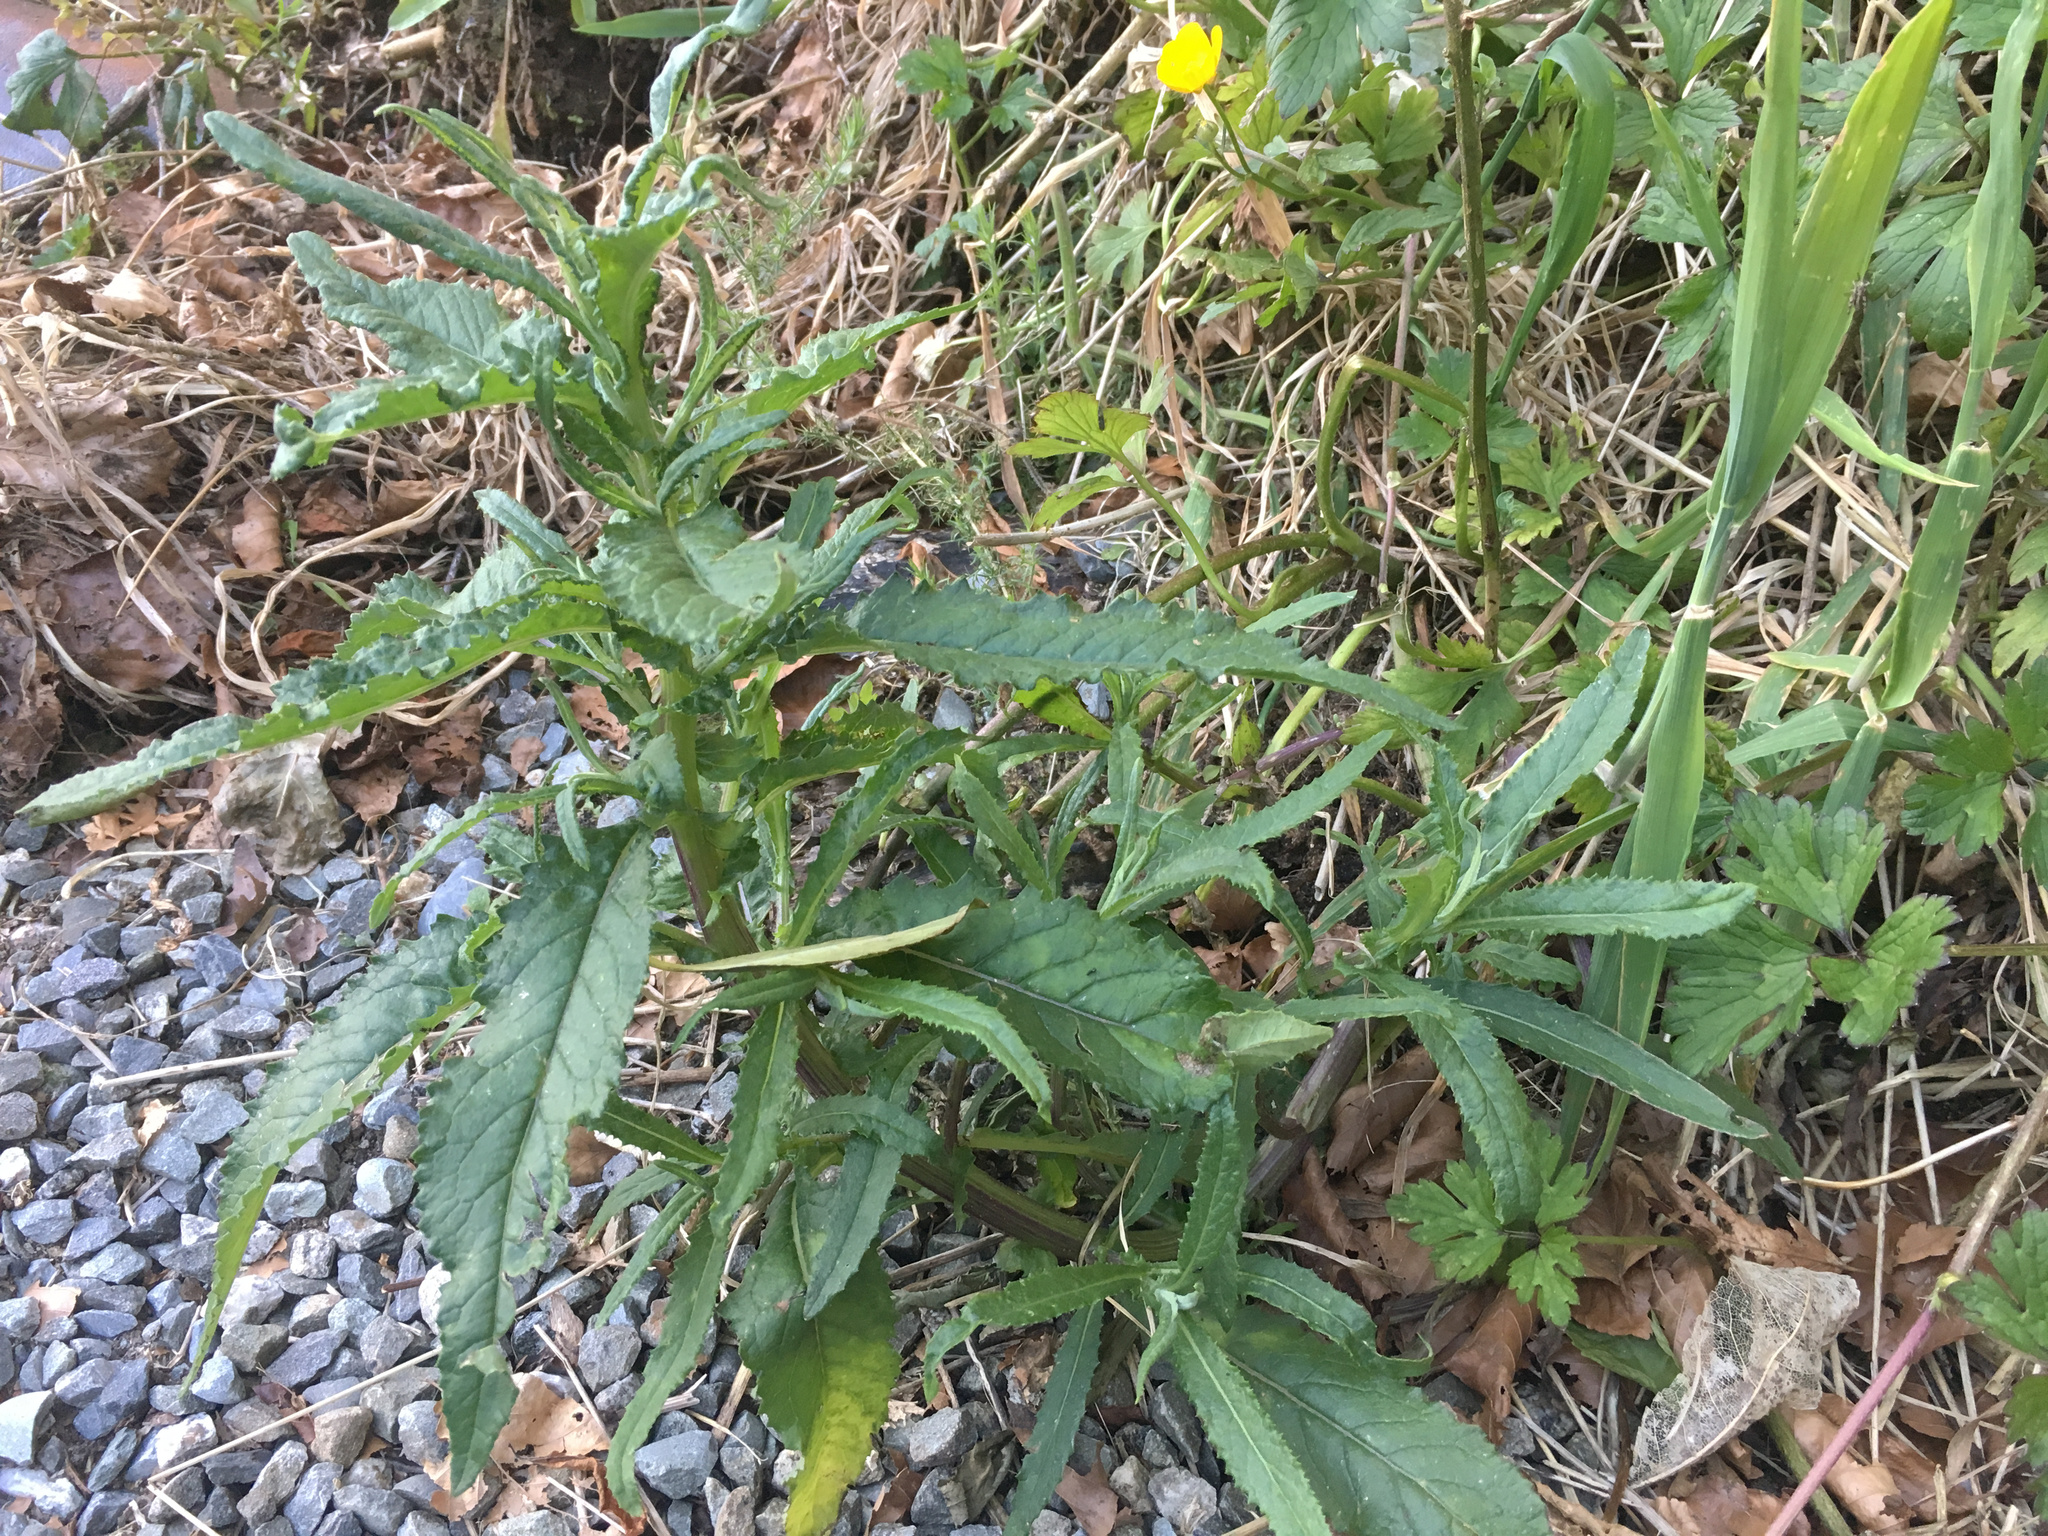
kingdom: Plantae
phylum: Tracheophyta
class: Magnoliopsida
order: Asterales
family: Asteraceae
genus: Senecio
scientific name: Senecio minimus
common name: Toothed fireweed
